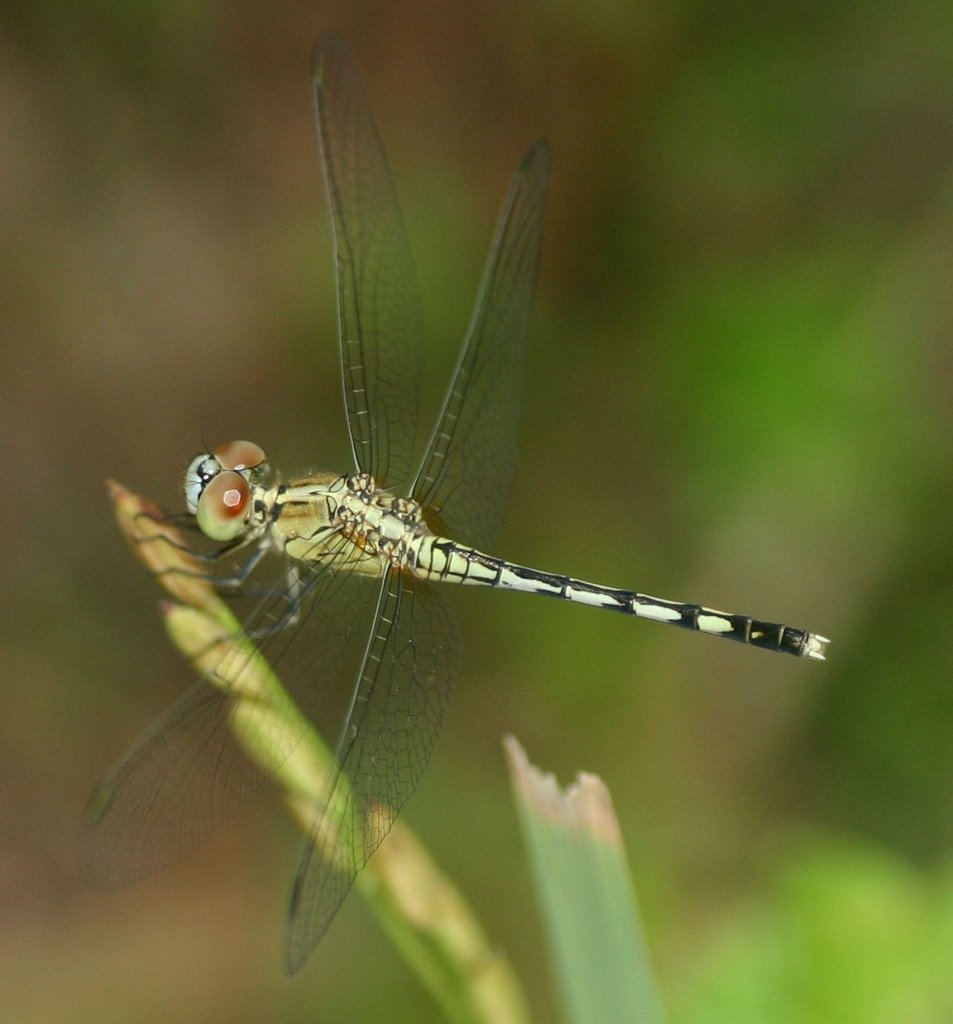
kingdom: Animalia
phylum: Arthropoda
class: Insecta
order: Odonata
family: Libellulidae
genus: Diplacodes
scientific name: Diplacodes trivialis
